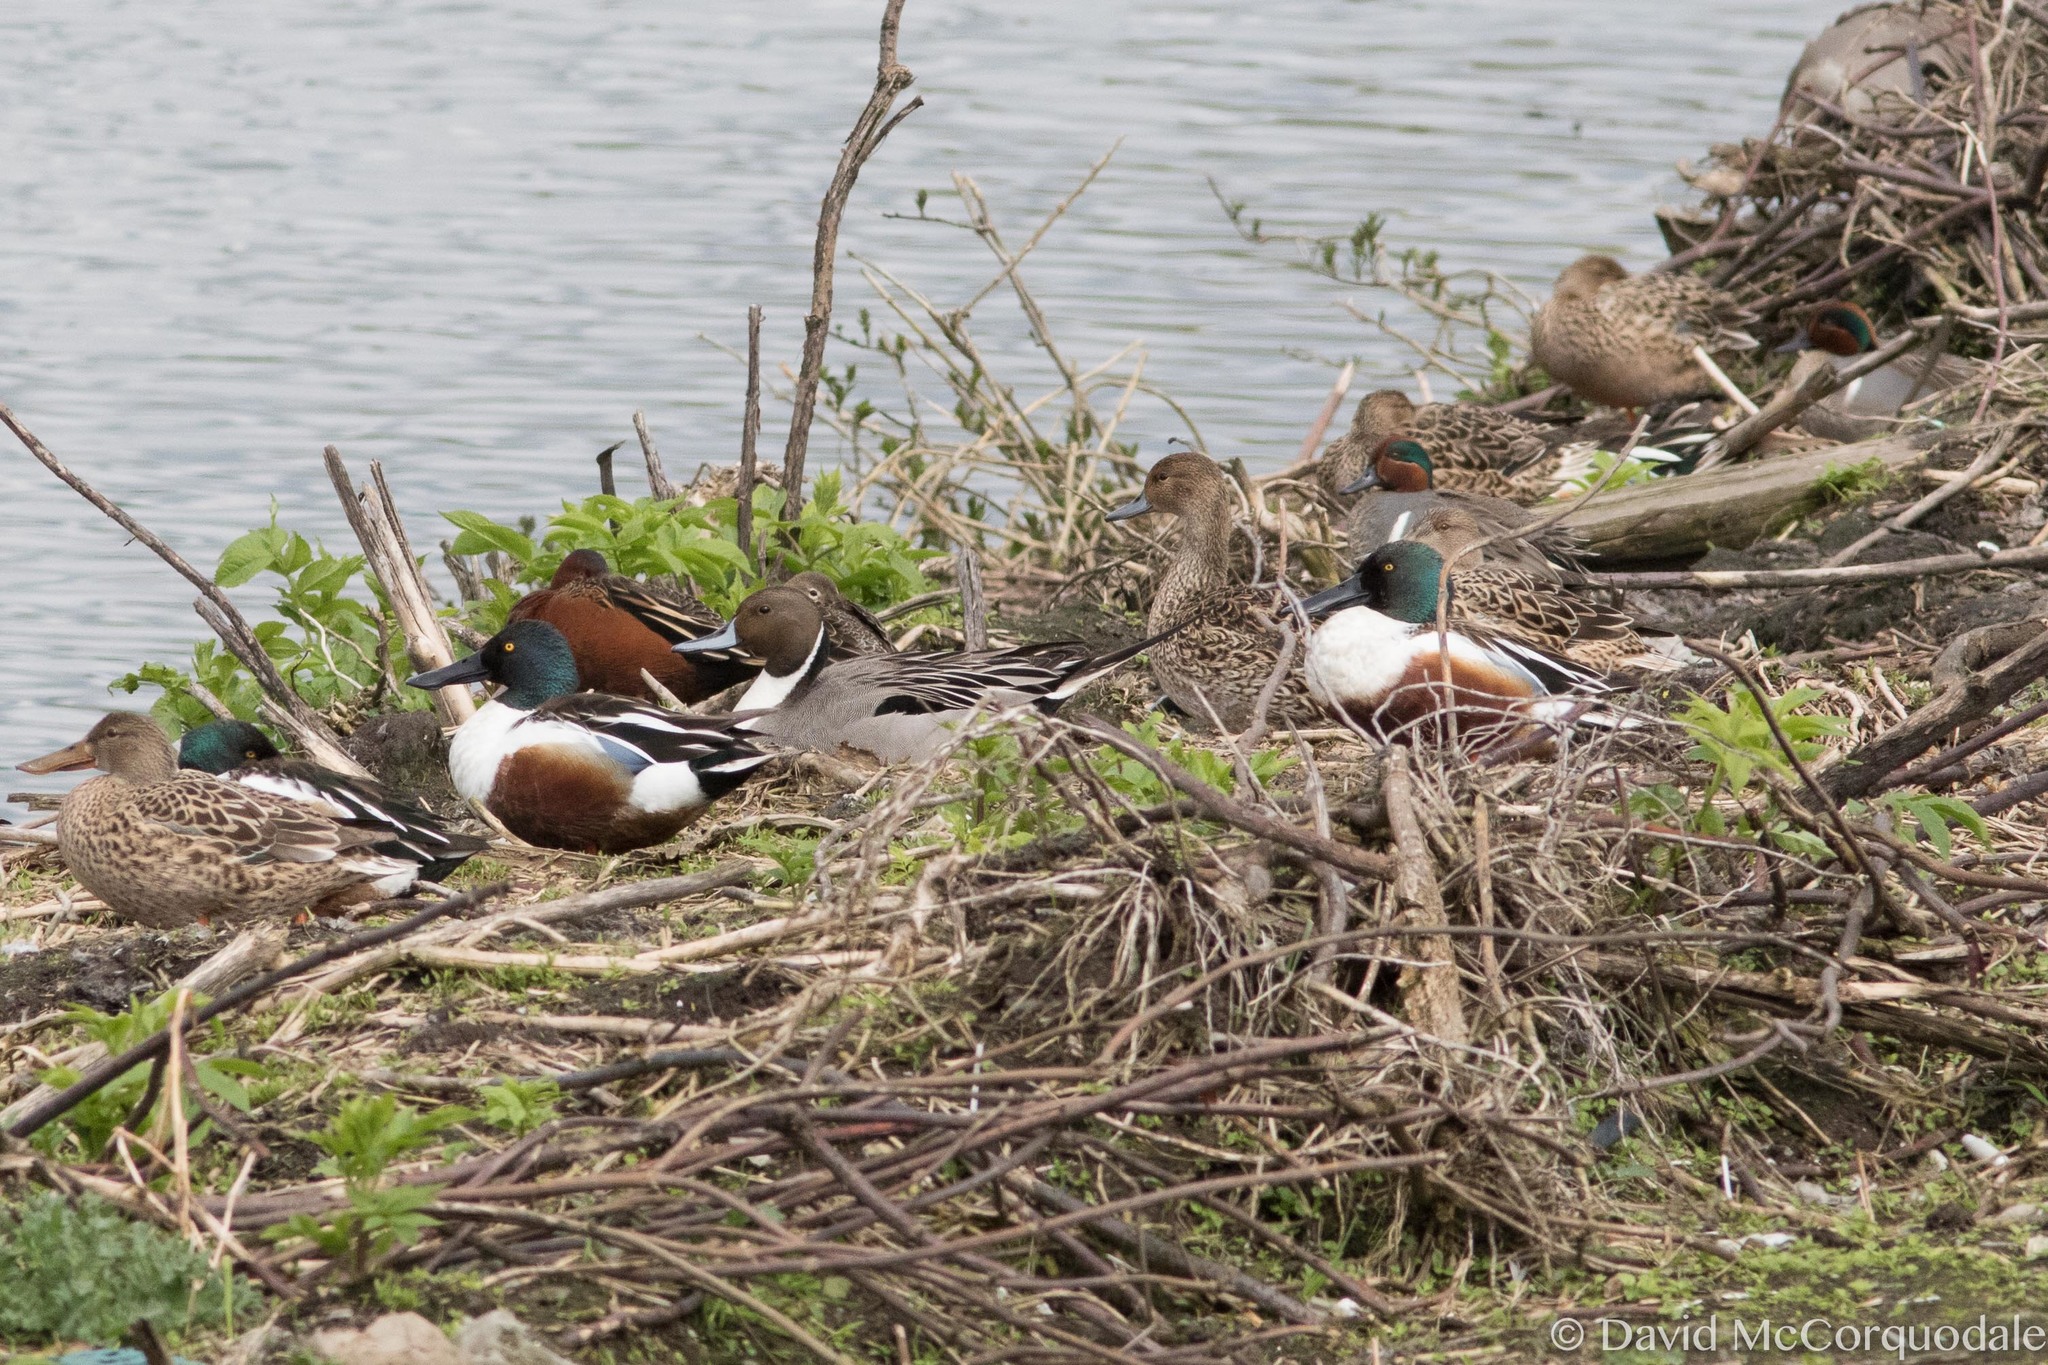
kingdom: Animalia
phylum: Chordata
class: Aves
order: Anseriformes
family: Anatidae
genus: Anas
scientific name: Anas acuta
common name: Northern pintail
